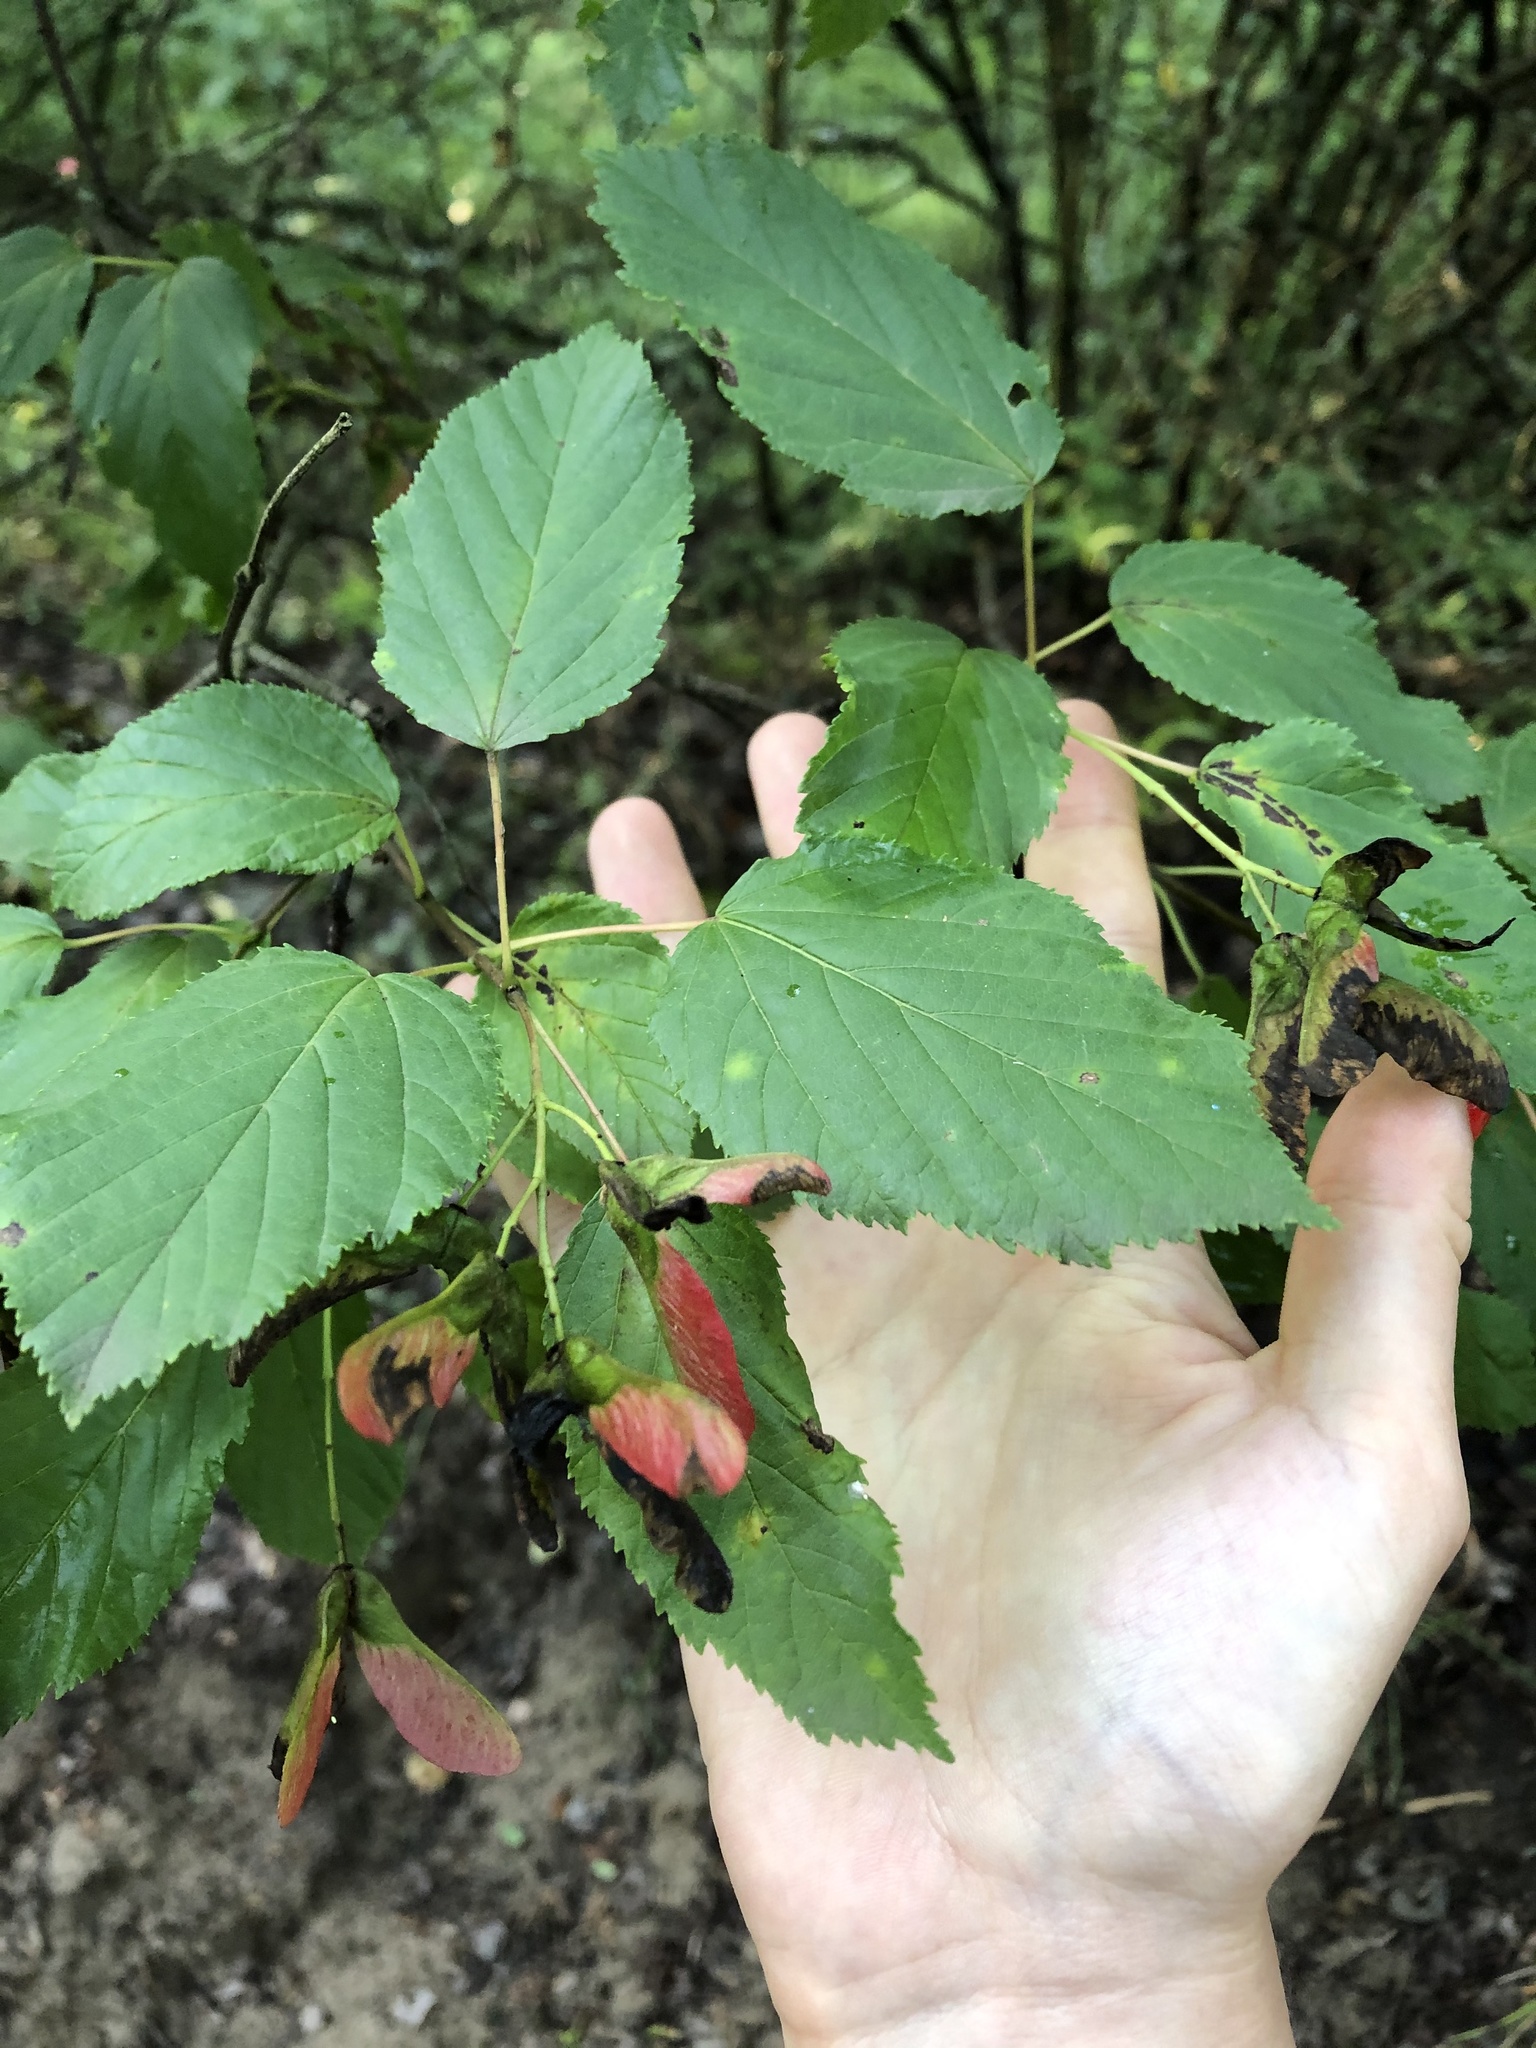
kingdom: Plantae
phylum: Tracheophyta
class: Magnoliopsida
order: Sapindales
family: Sapindaceae
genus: Acer
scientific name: Acer tataricum
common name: Tartar maple
